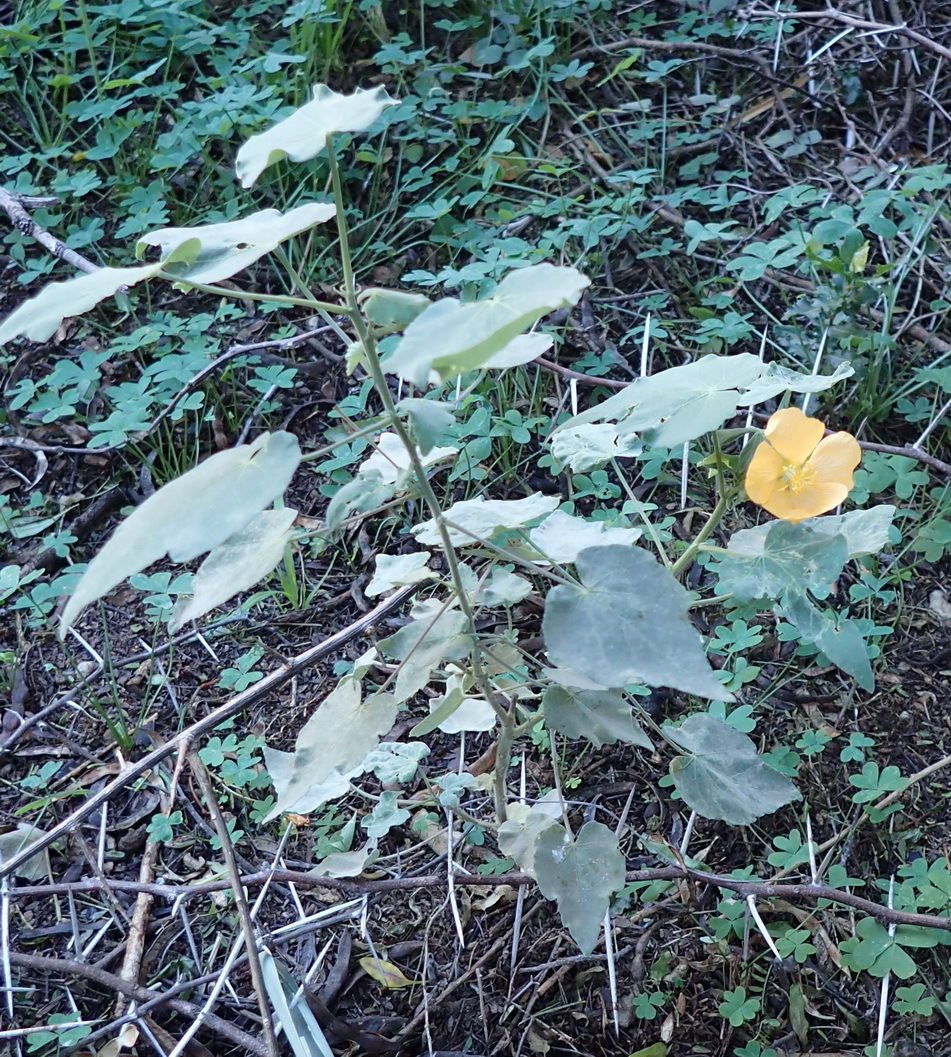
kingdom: Plantae
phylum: Tracheophyta
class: Magnoliopsida
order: Malvales
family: Malvaceae
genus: Abutilon
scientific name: Abutilon sonneratianum
